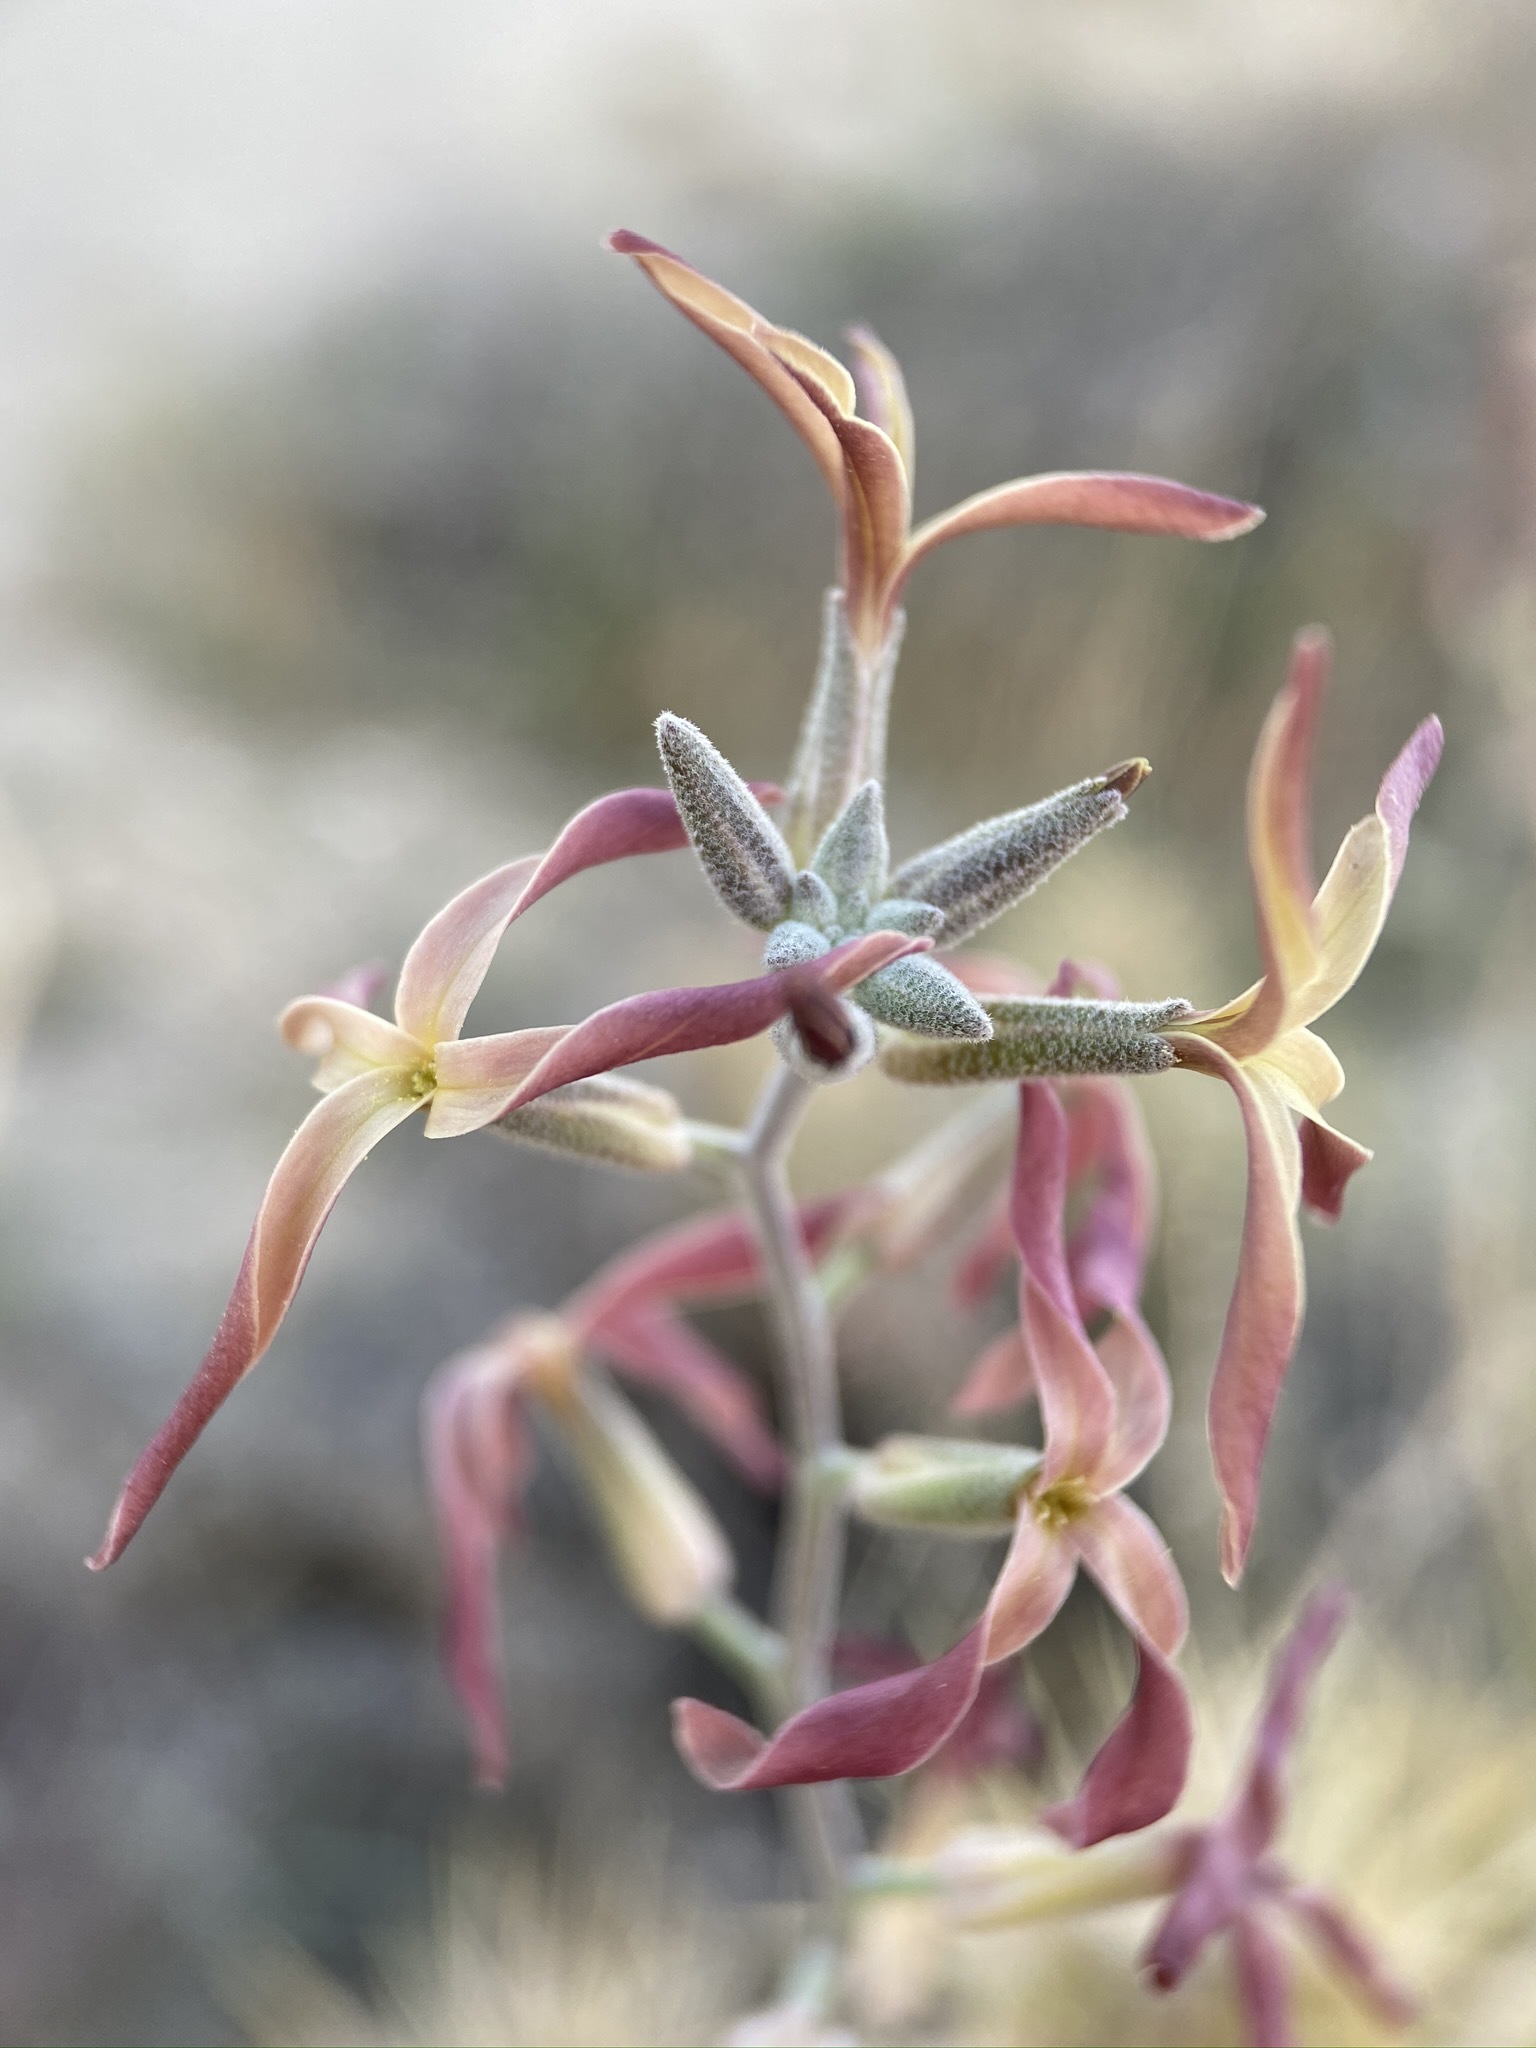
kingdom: Plantae
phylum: Tracheophyta
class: Magnoliopsida
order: Brassicales
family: Brassicaceae
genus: Lyrocarpa
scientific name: Lyrocarpa coulteri
